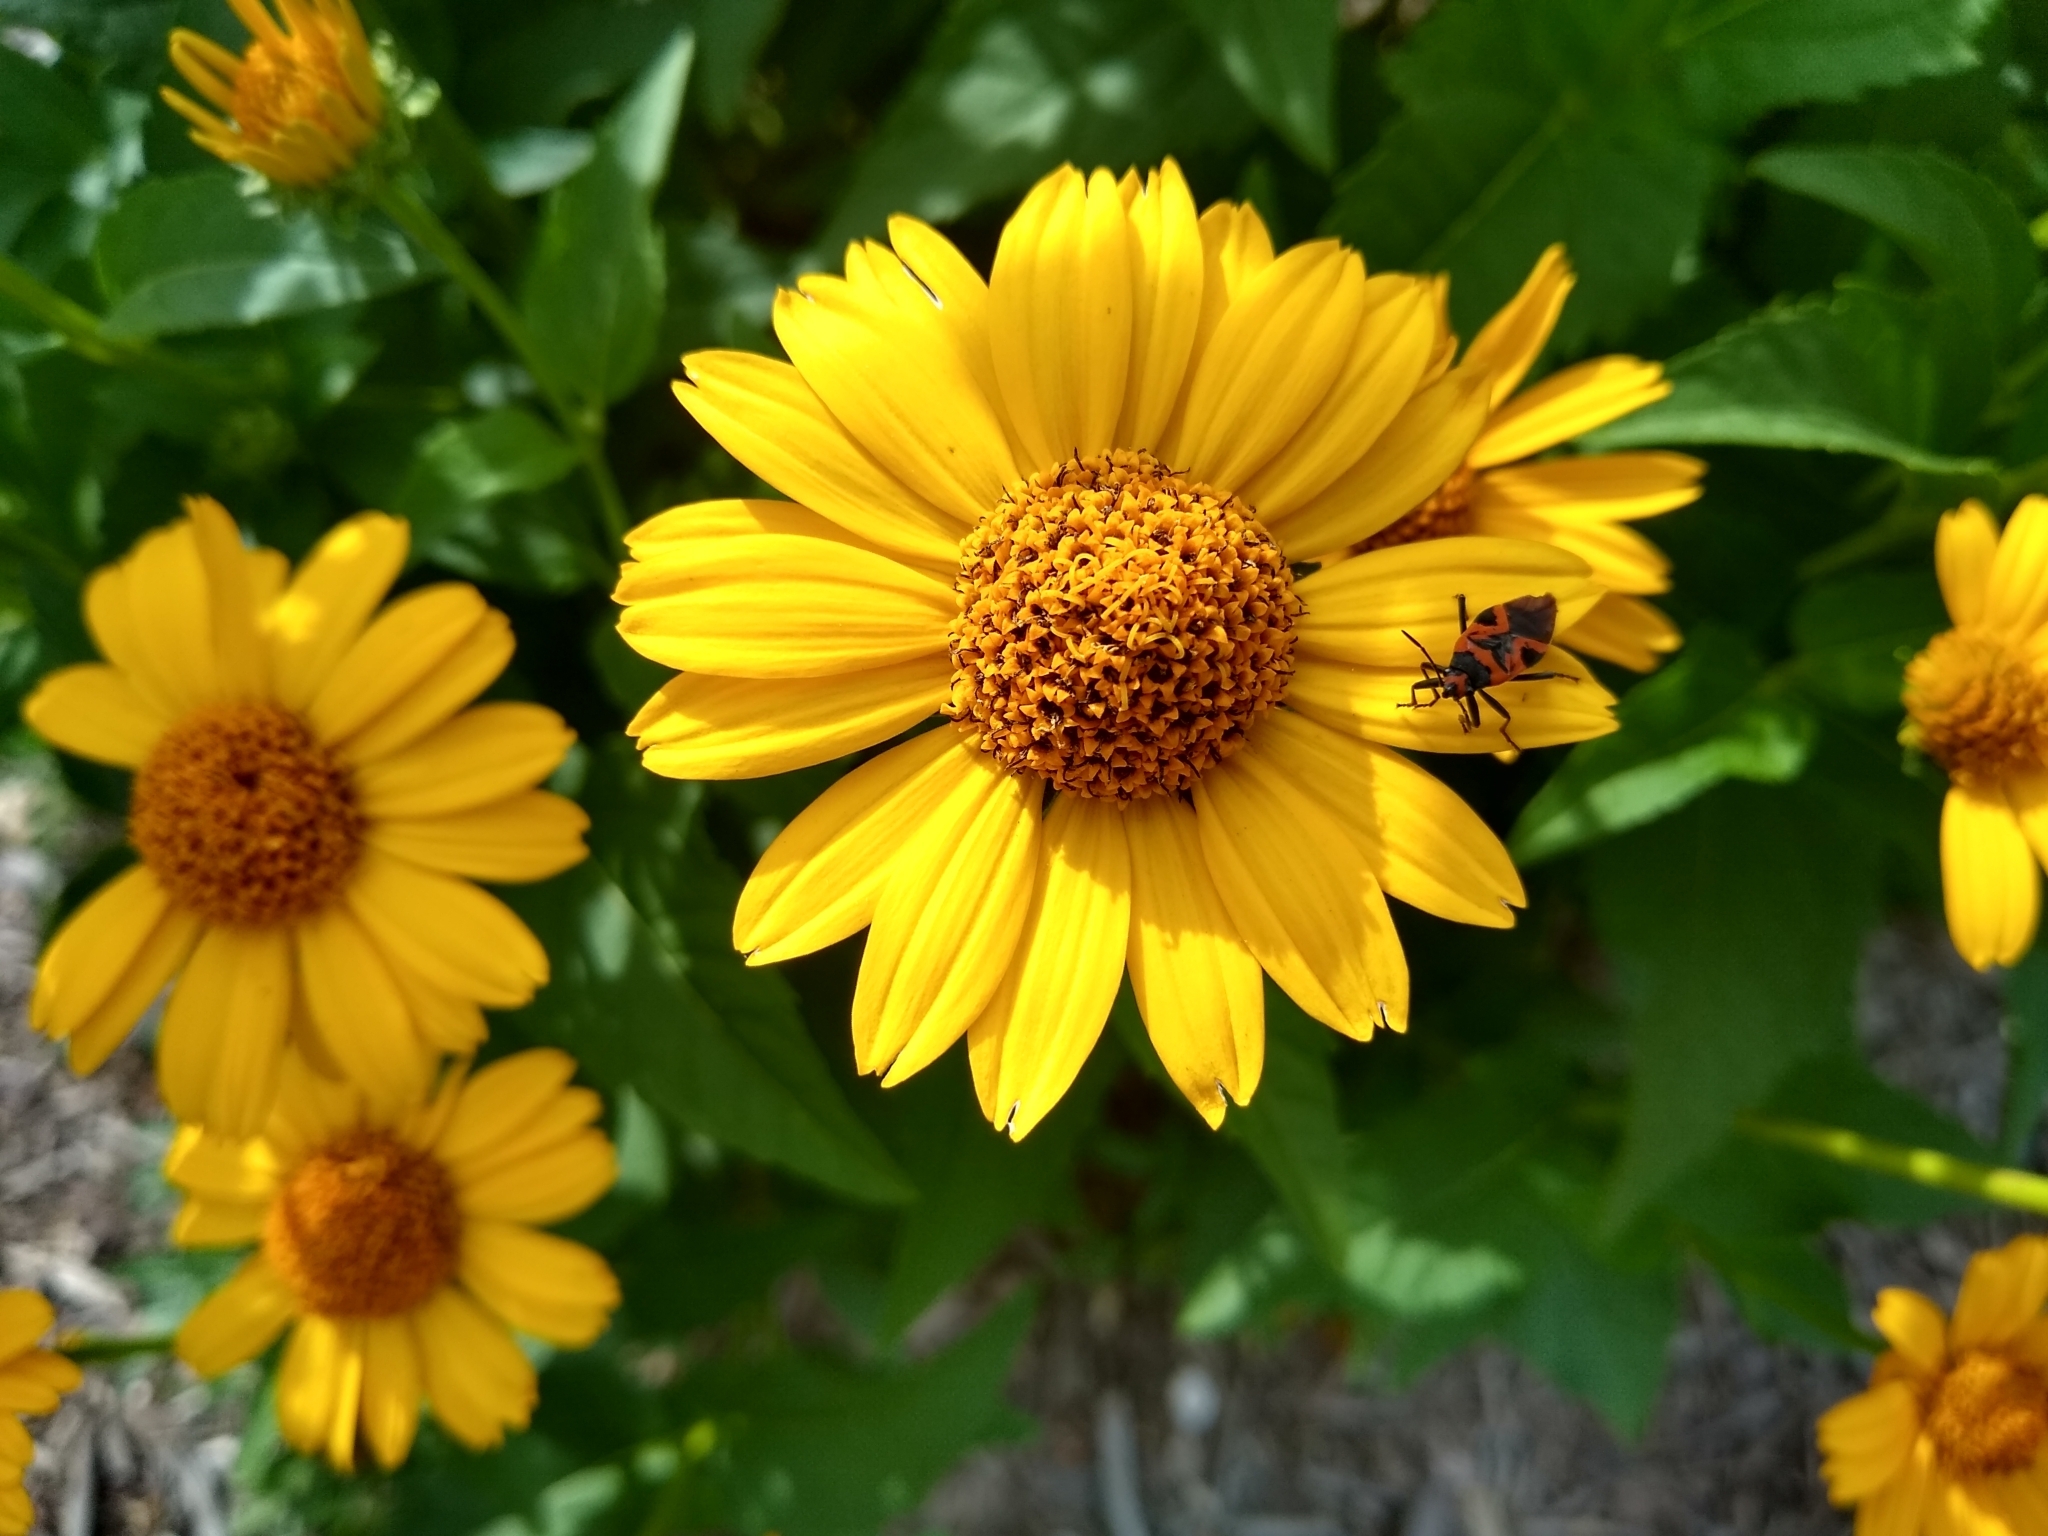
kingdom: Animalia
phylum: Arthropoda
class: Insecta
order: Hemiptera
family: Lygaeidae
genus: Lygaeus
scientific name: Lygaeus turcicus
